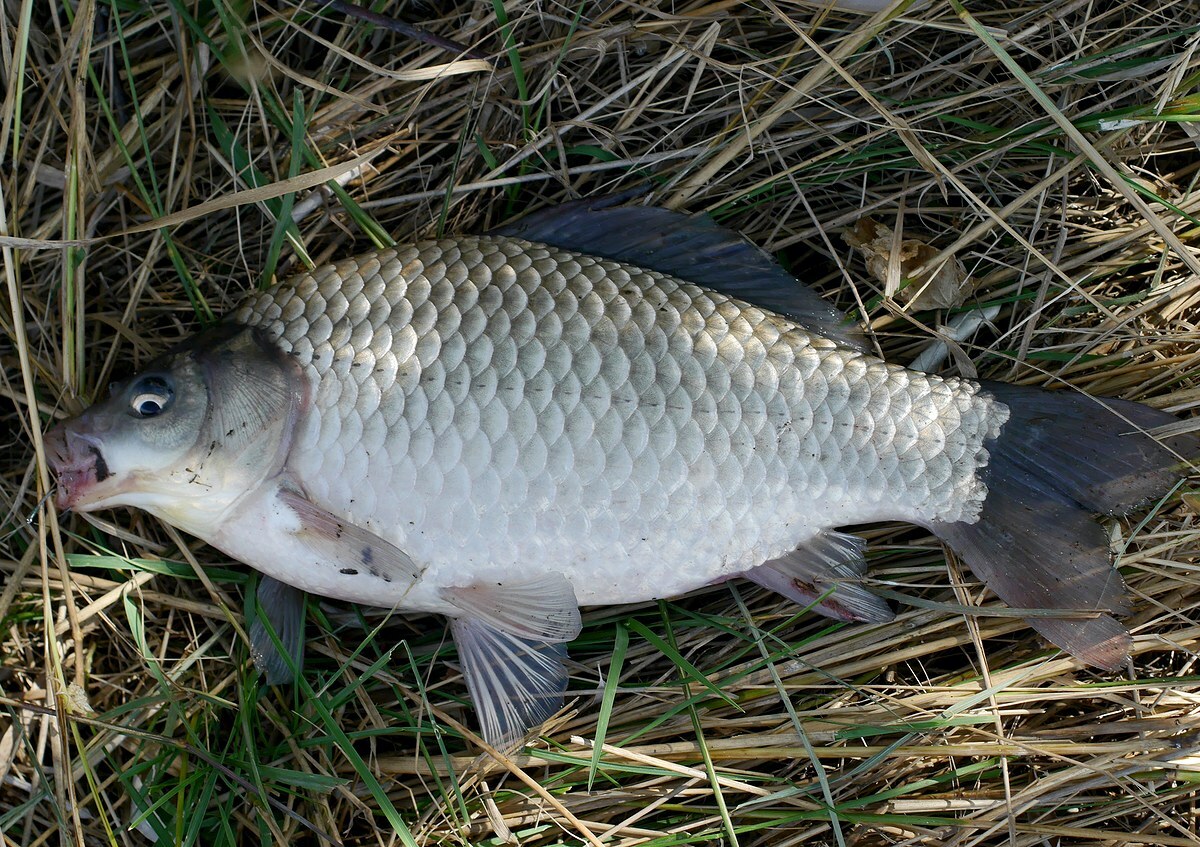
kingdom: Animalia
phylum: Chordata
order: Cypriniformes
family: Cyprinidae
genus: Carassius
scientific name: Carassius gibelio
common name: Prussian carp
